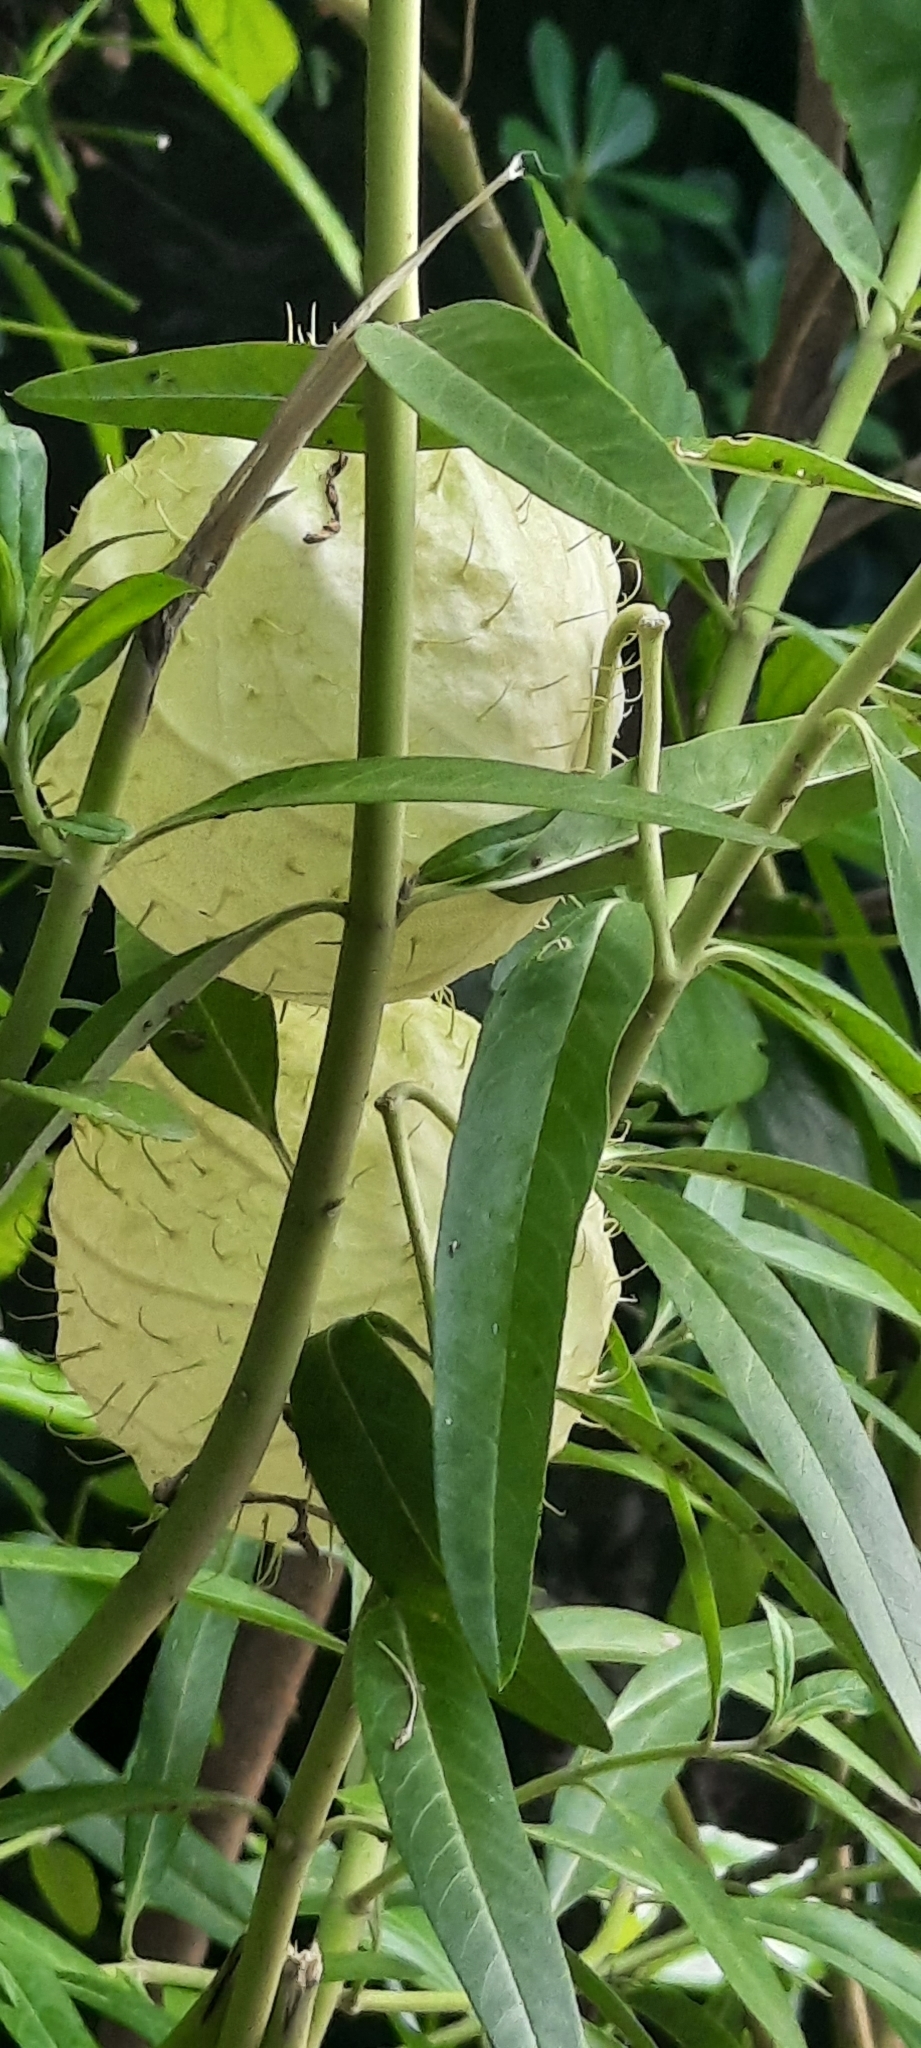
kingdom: Plantae
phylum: Tracheophyta
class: Magnoliopsida
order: Gentianales
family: Apocynaceae
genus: Gomphocarpus
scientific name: Gomphocarpus physocarpus
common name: Balloon cotton bush
